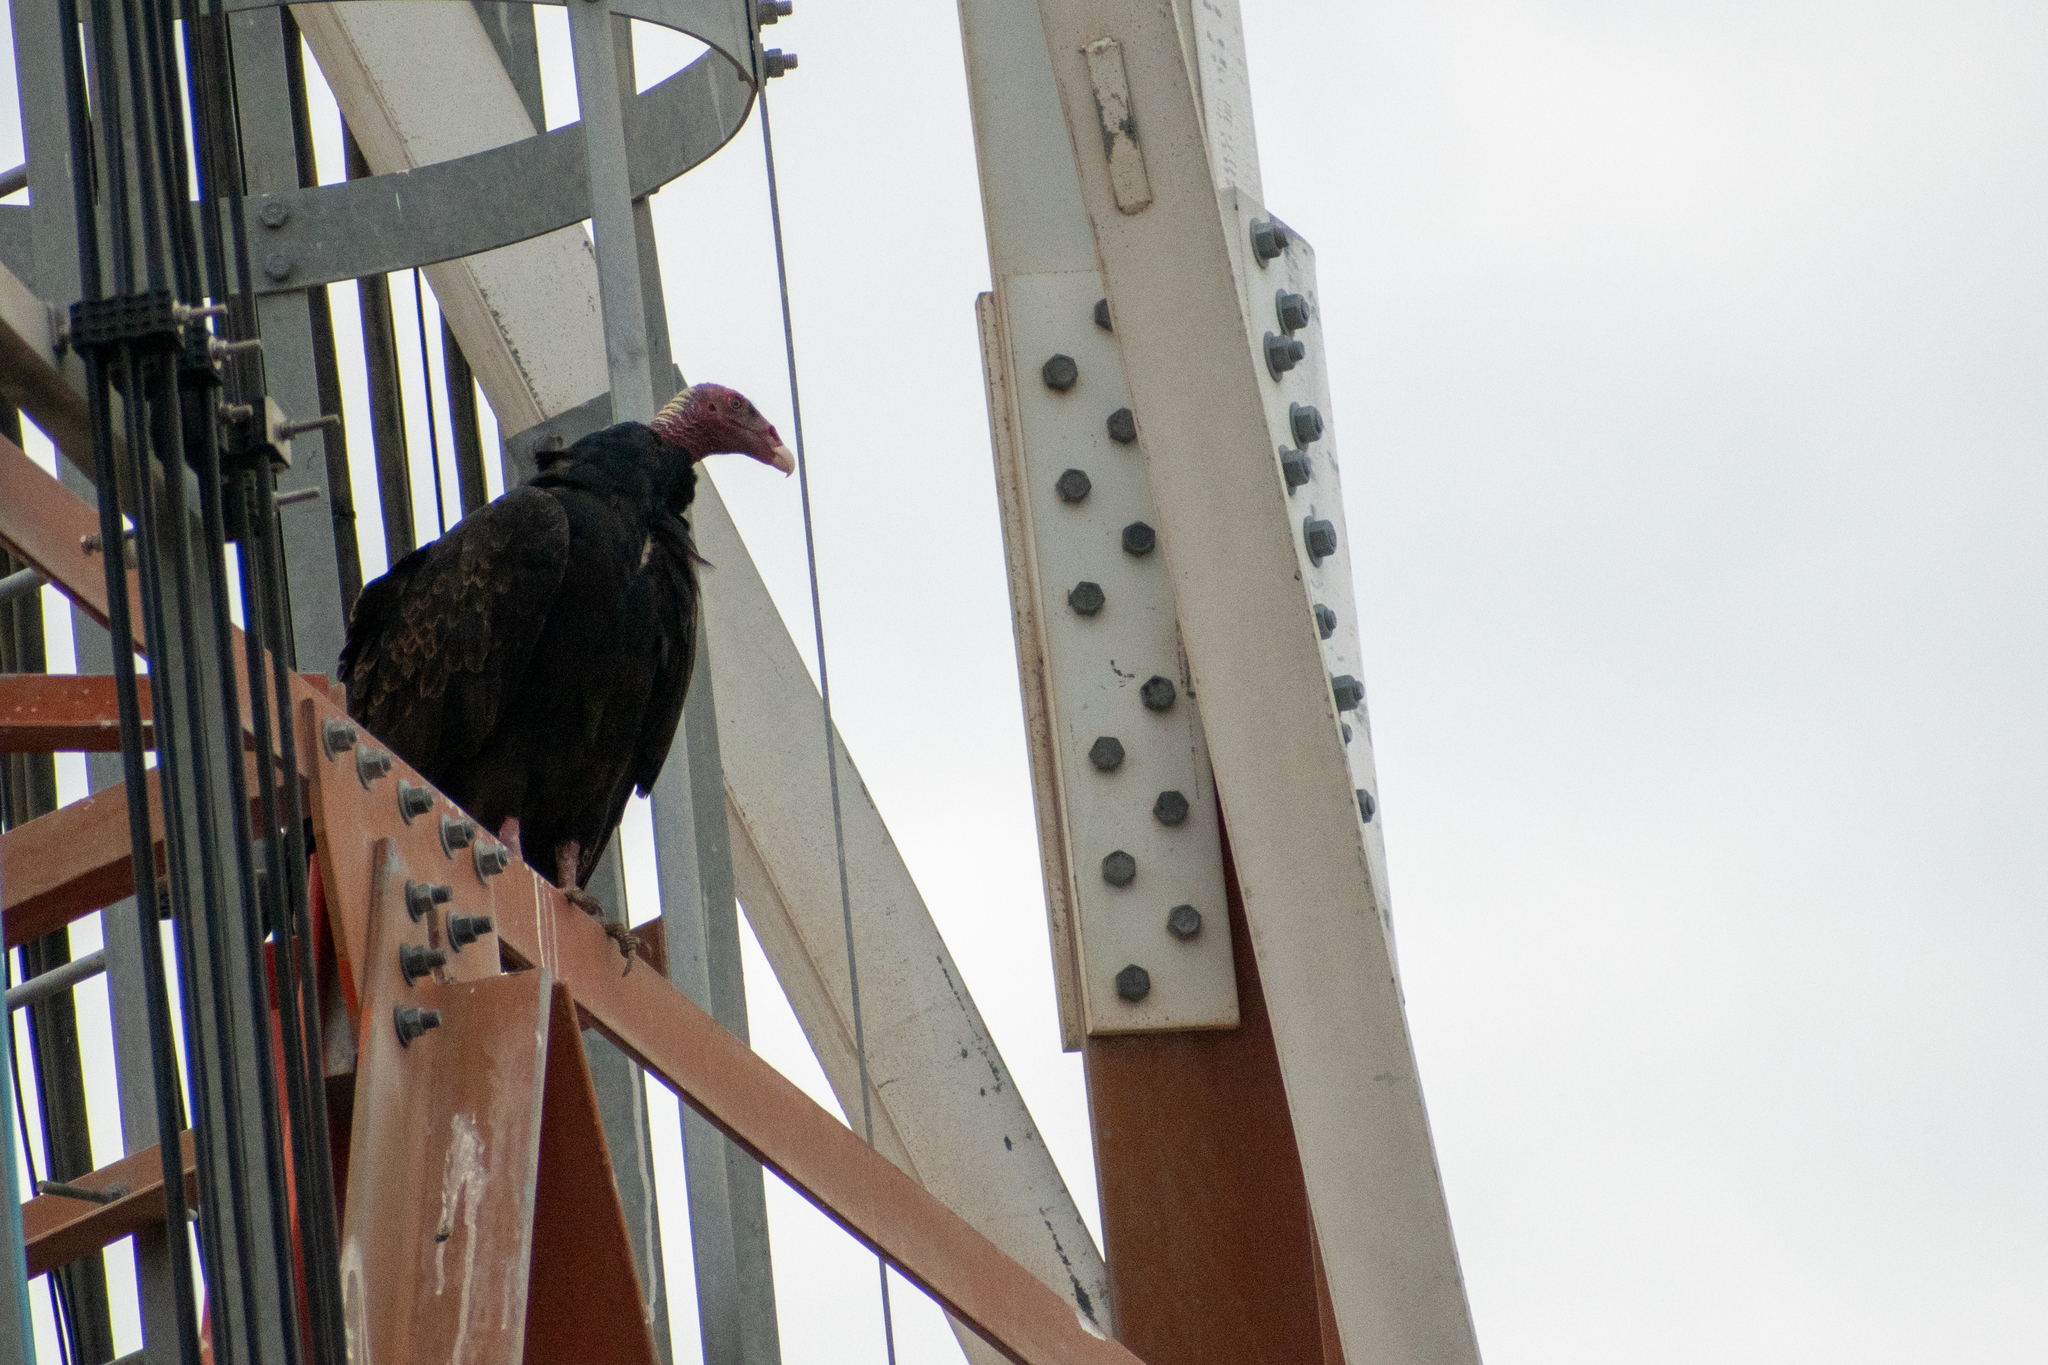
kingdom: Animalia
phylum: Chordata
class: Aves
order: Accipitriformes
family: Cathartidae
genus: Cathartes
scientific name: Cathartes aura
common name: Turkey vulture
